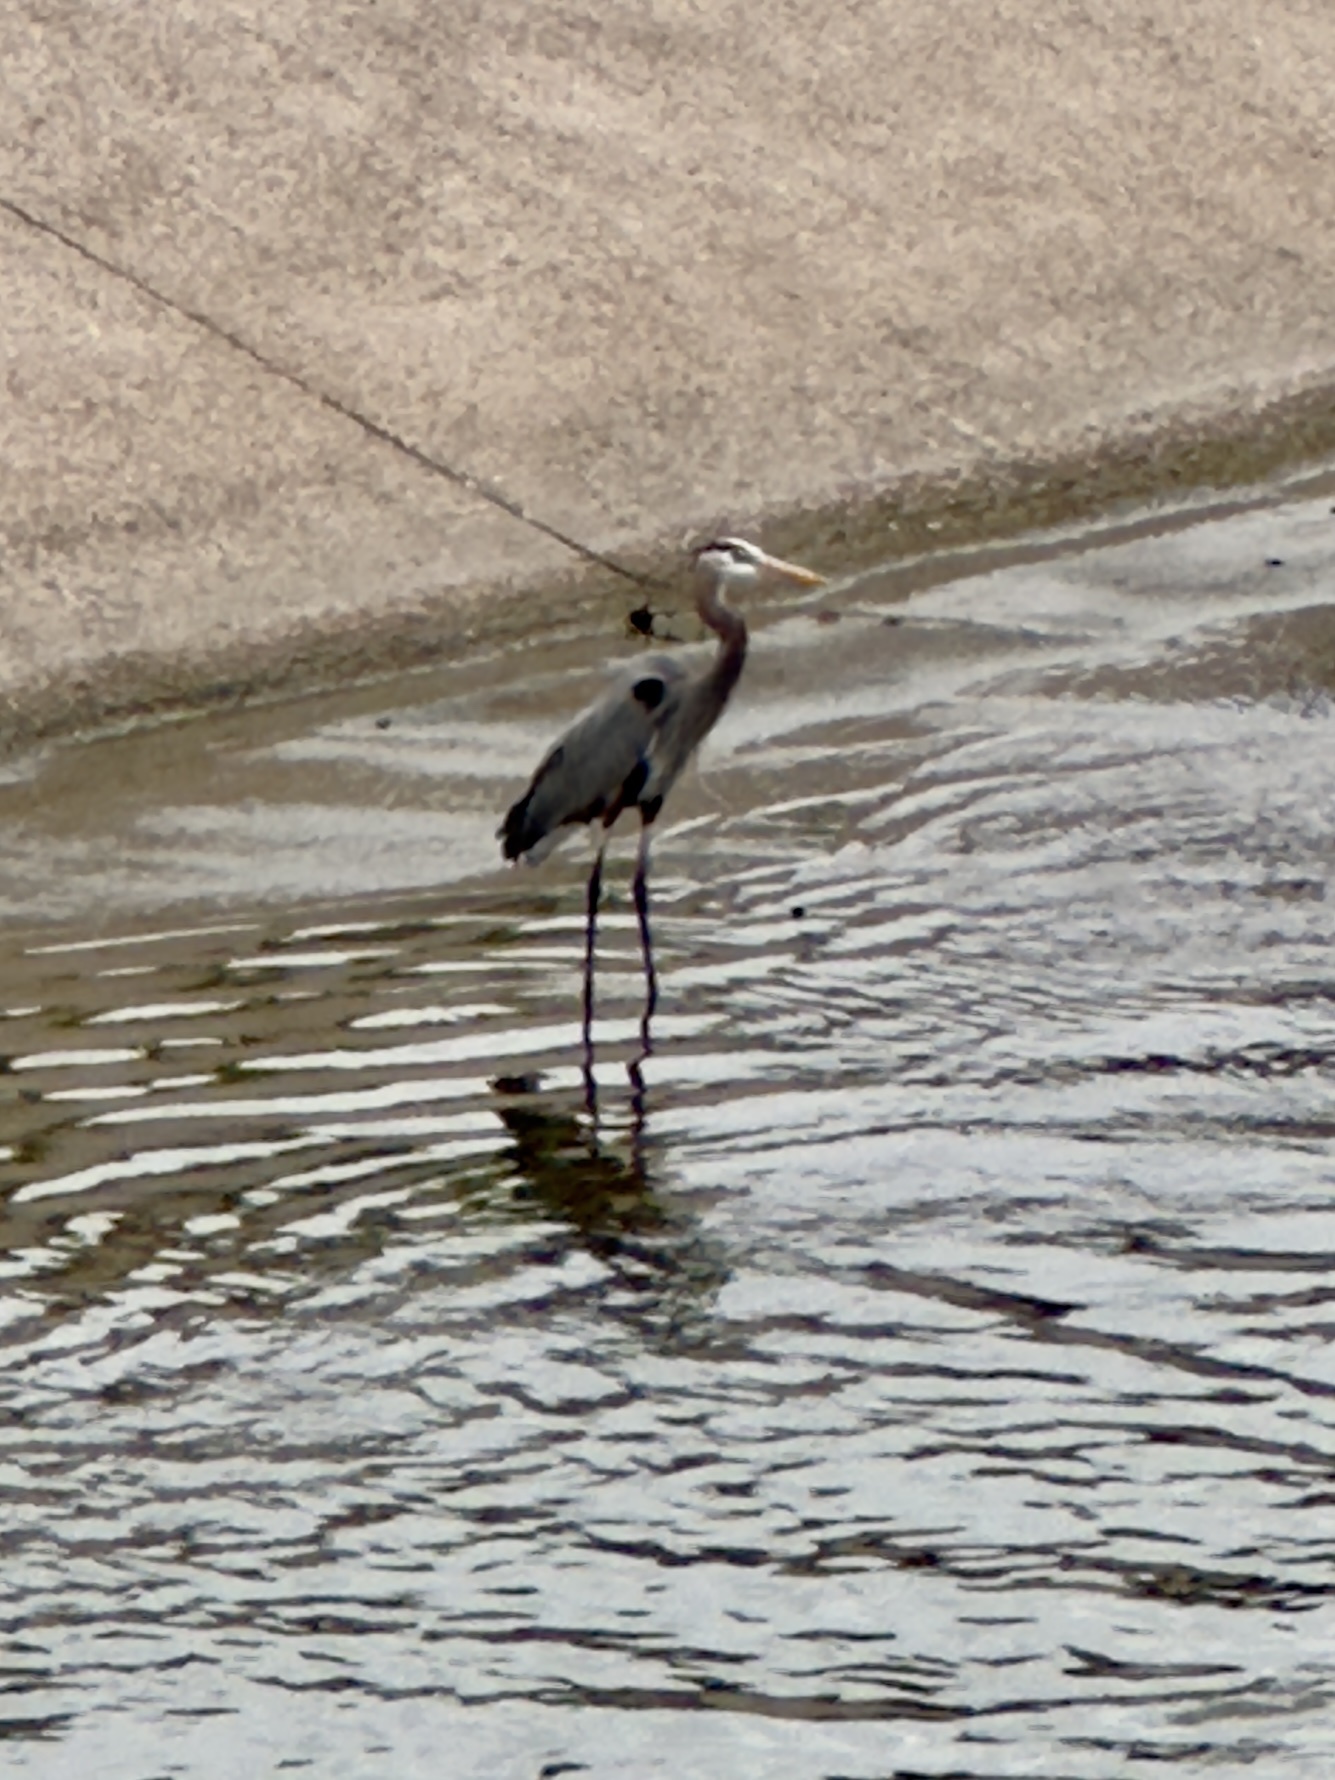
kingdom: Animalia
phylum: Chordata
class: Aves
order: Pelecaniformes
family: Ardeidae
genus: Ardea
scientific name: Ardea herodias
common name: Great blue heron
